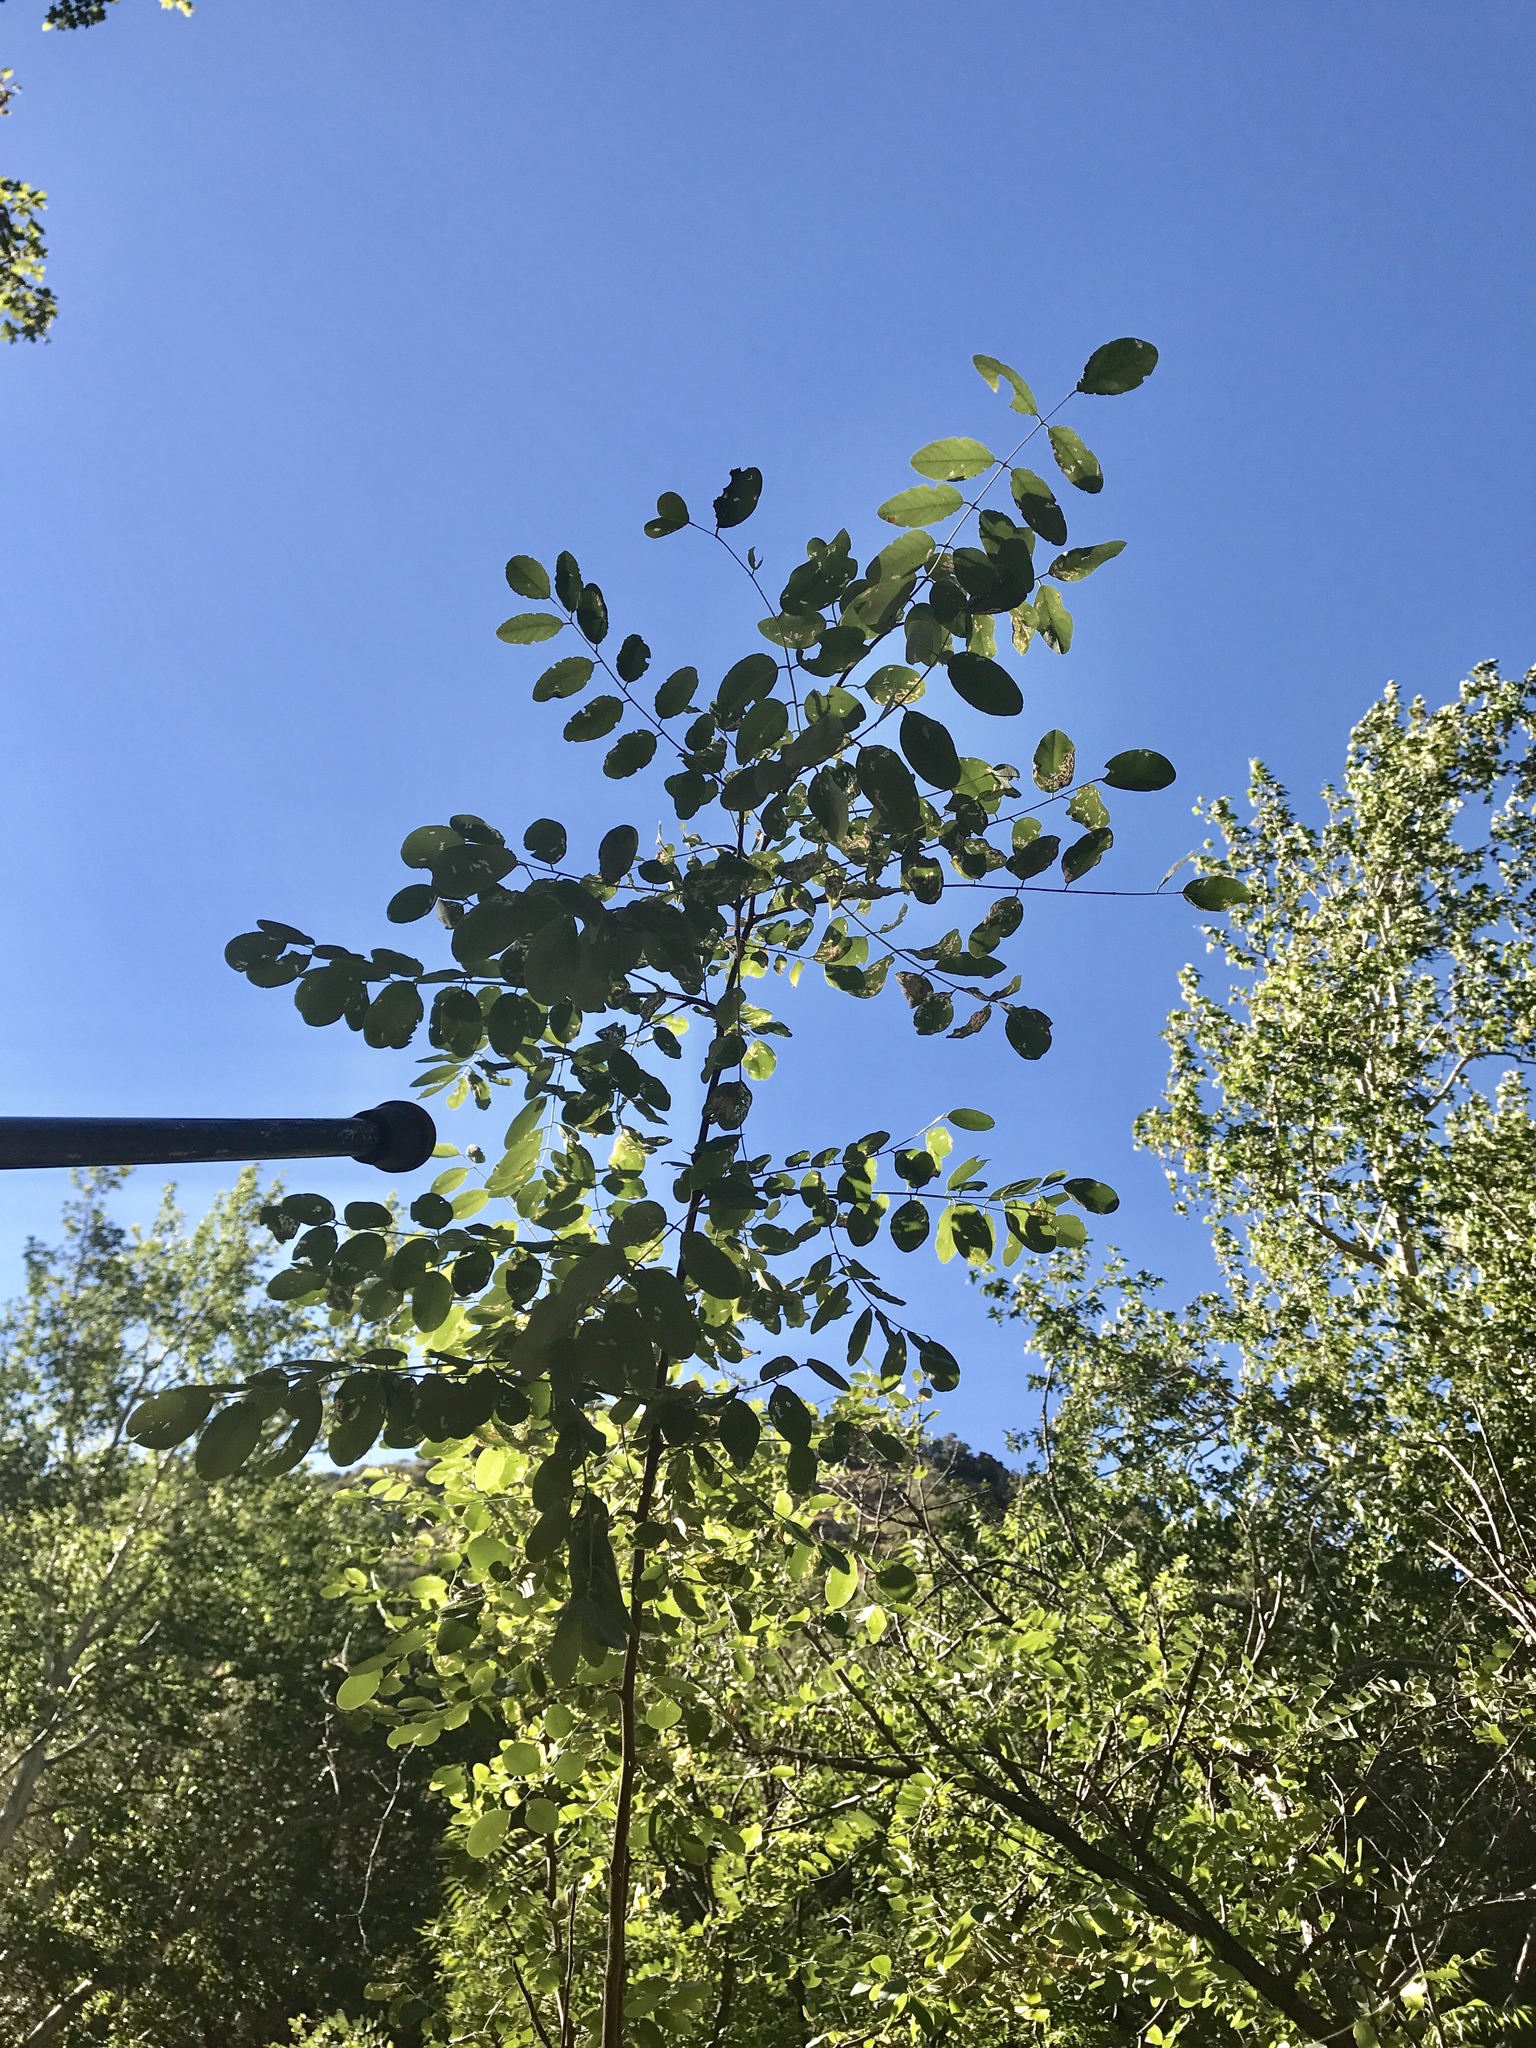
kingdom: Plantae
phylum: Tracheophyta
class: Magnoliopsida
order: Fabales
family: Fabaceae
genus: Robinia
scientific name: Robinia neomexicana
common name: New mexico locust
